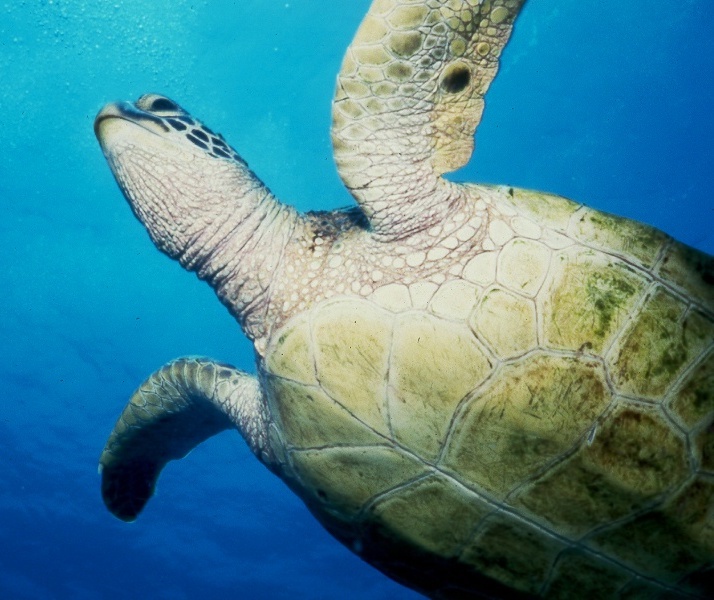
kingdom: Animalia
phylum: Chordata
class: Testudines
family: Cheloniidae
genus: Chelonia
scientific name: Chelonia mydas
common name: Green turtle
